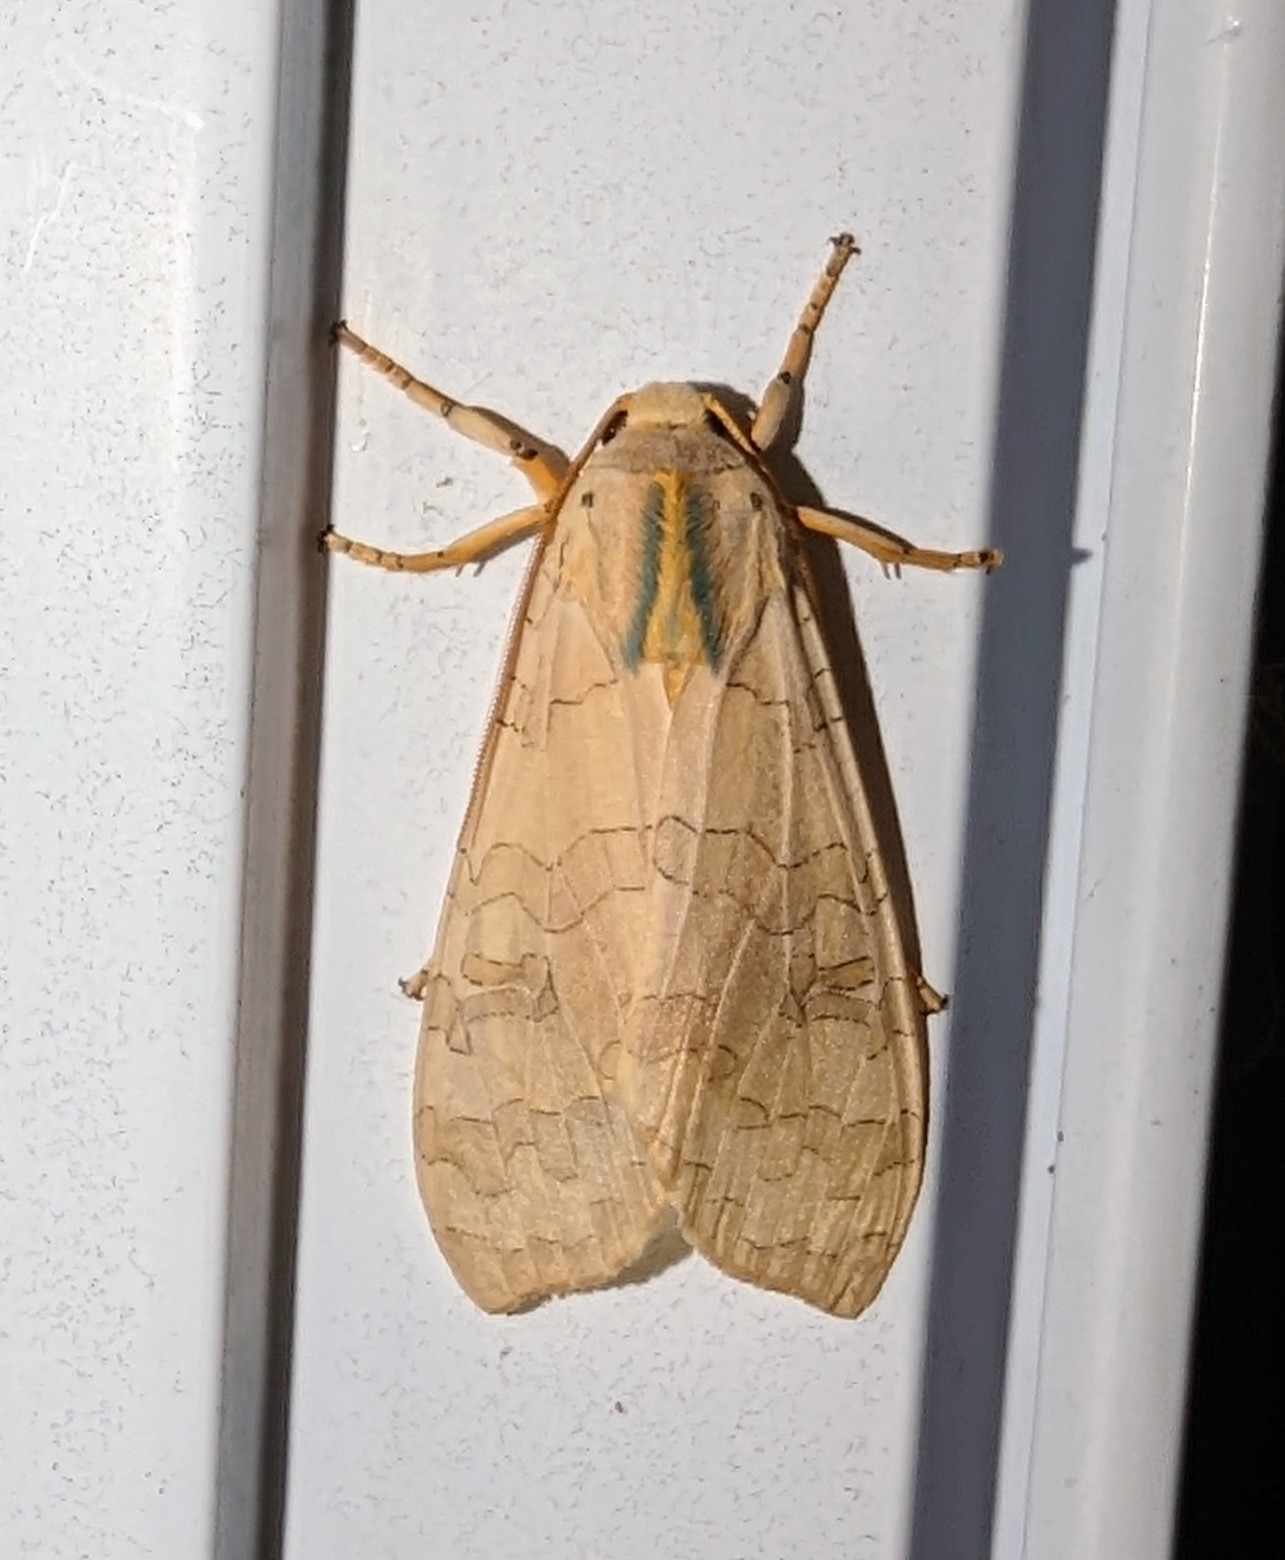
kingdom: Animalia
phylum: Arthropoda
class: Insecta
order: Lepidoptera
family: Erebidae
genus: Halysidota
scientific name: Halysidota
